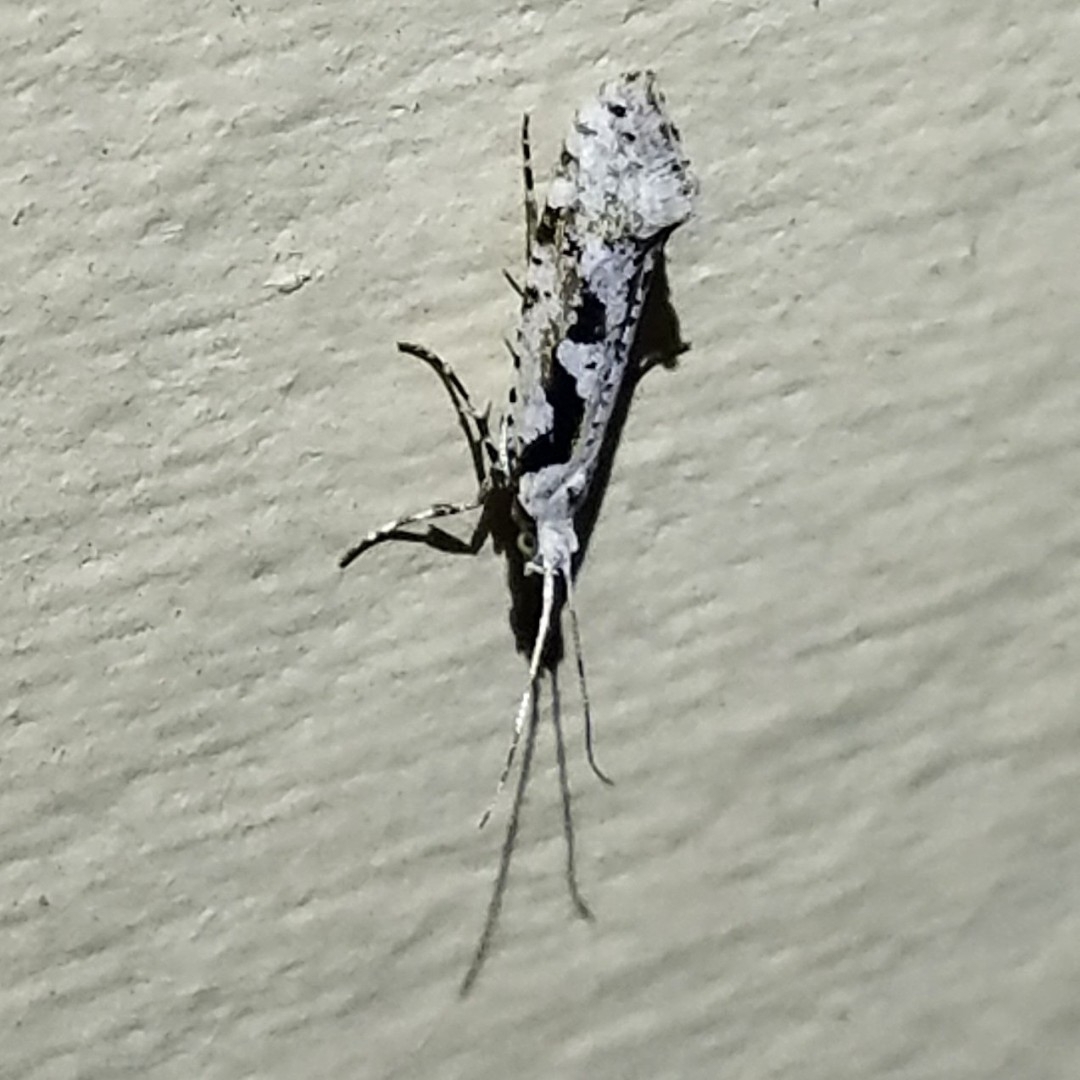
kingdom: Animalia
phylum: Arthropoda
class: Insecta
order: Lepidoptera
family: Plutellidae
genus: Rhigognostis
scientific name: Rhigognostis interrupta
